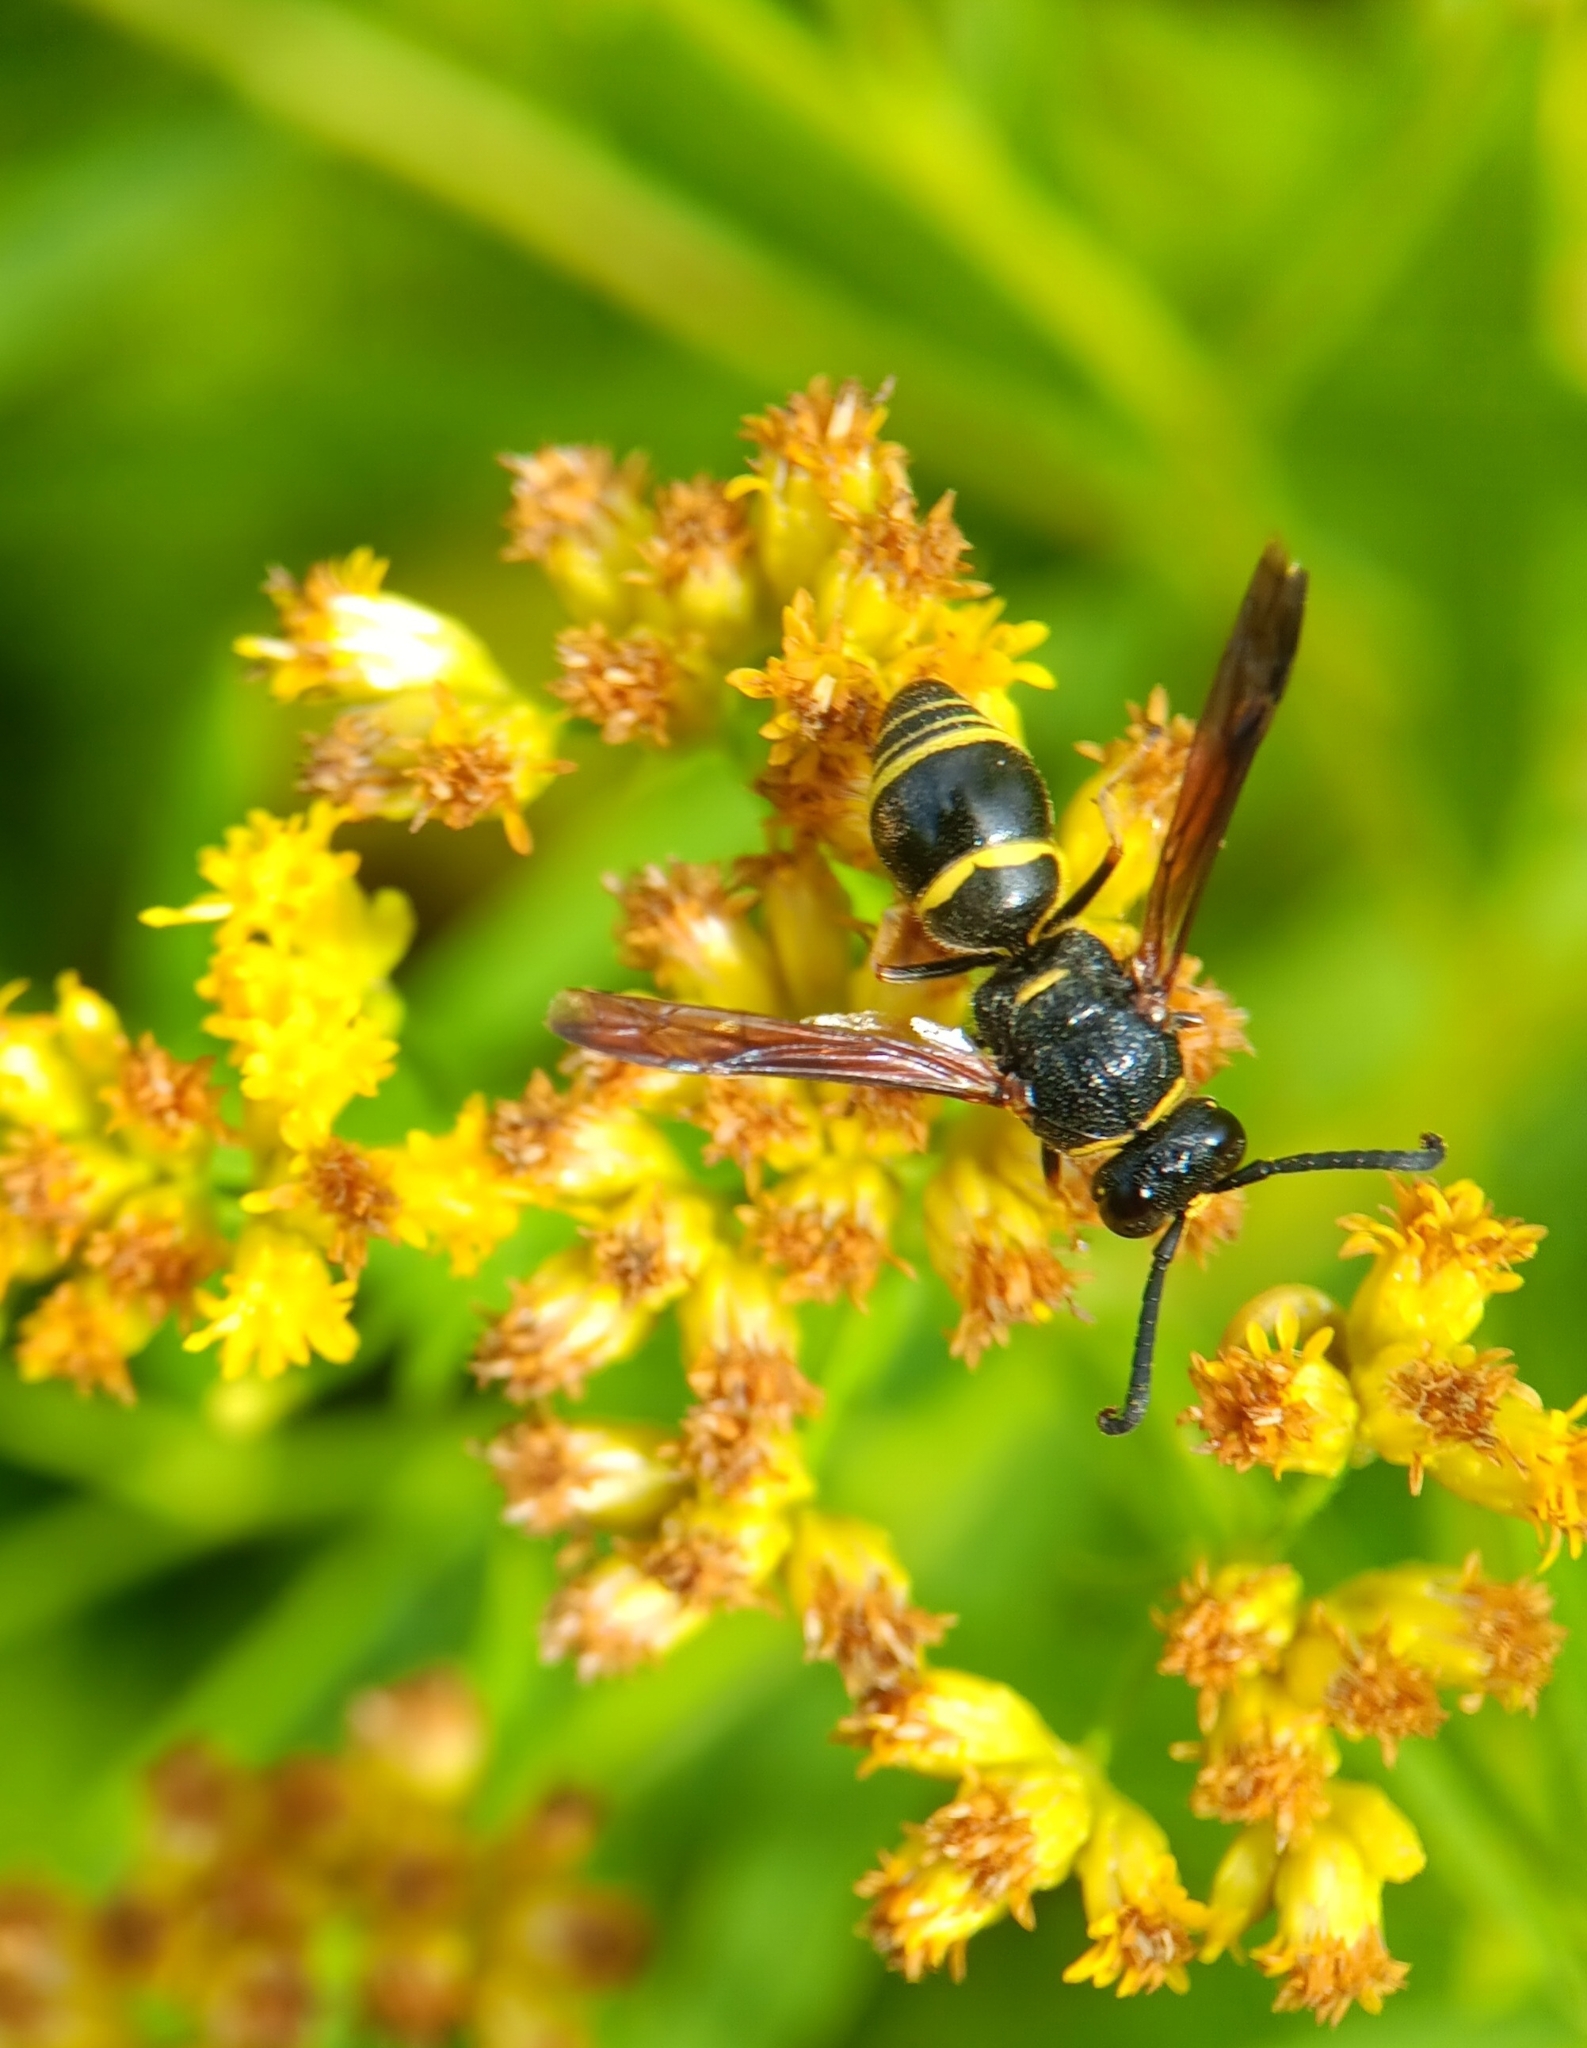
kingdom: Animalia
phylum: Arthropoda
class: Insecta
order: Hymenoptera
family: Eumenidae
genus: Euodynerus
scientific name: Euodynerus
